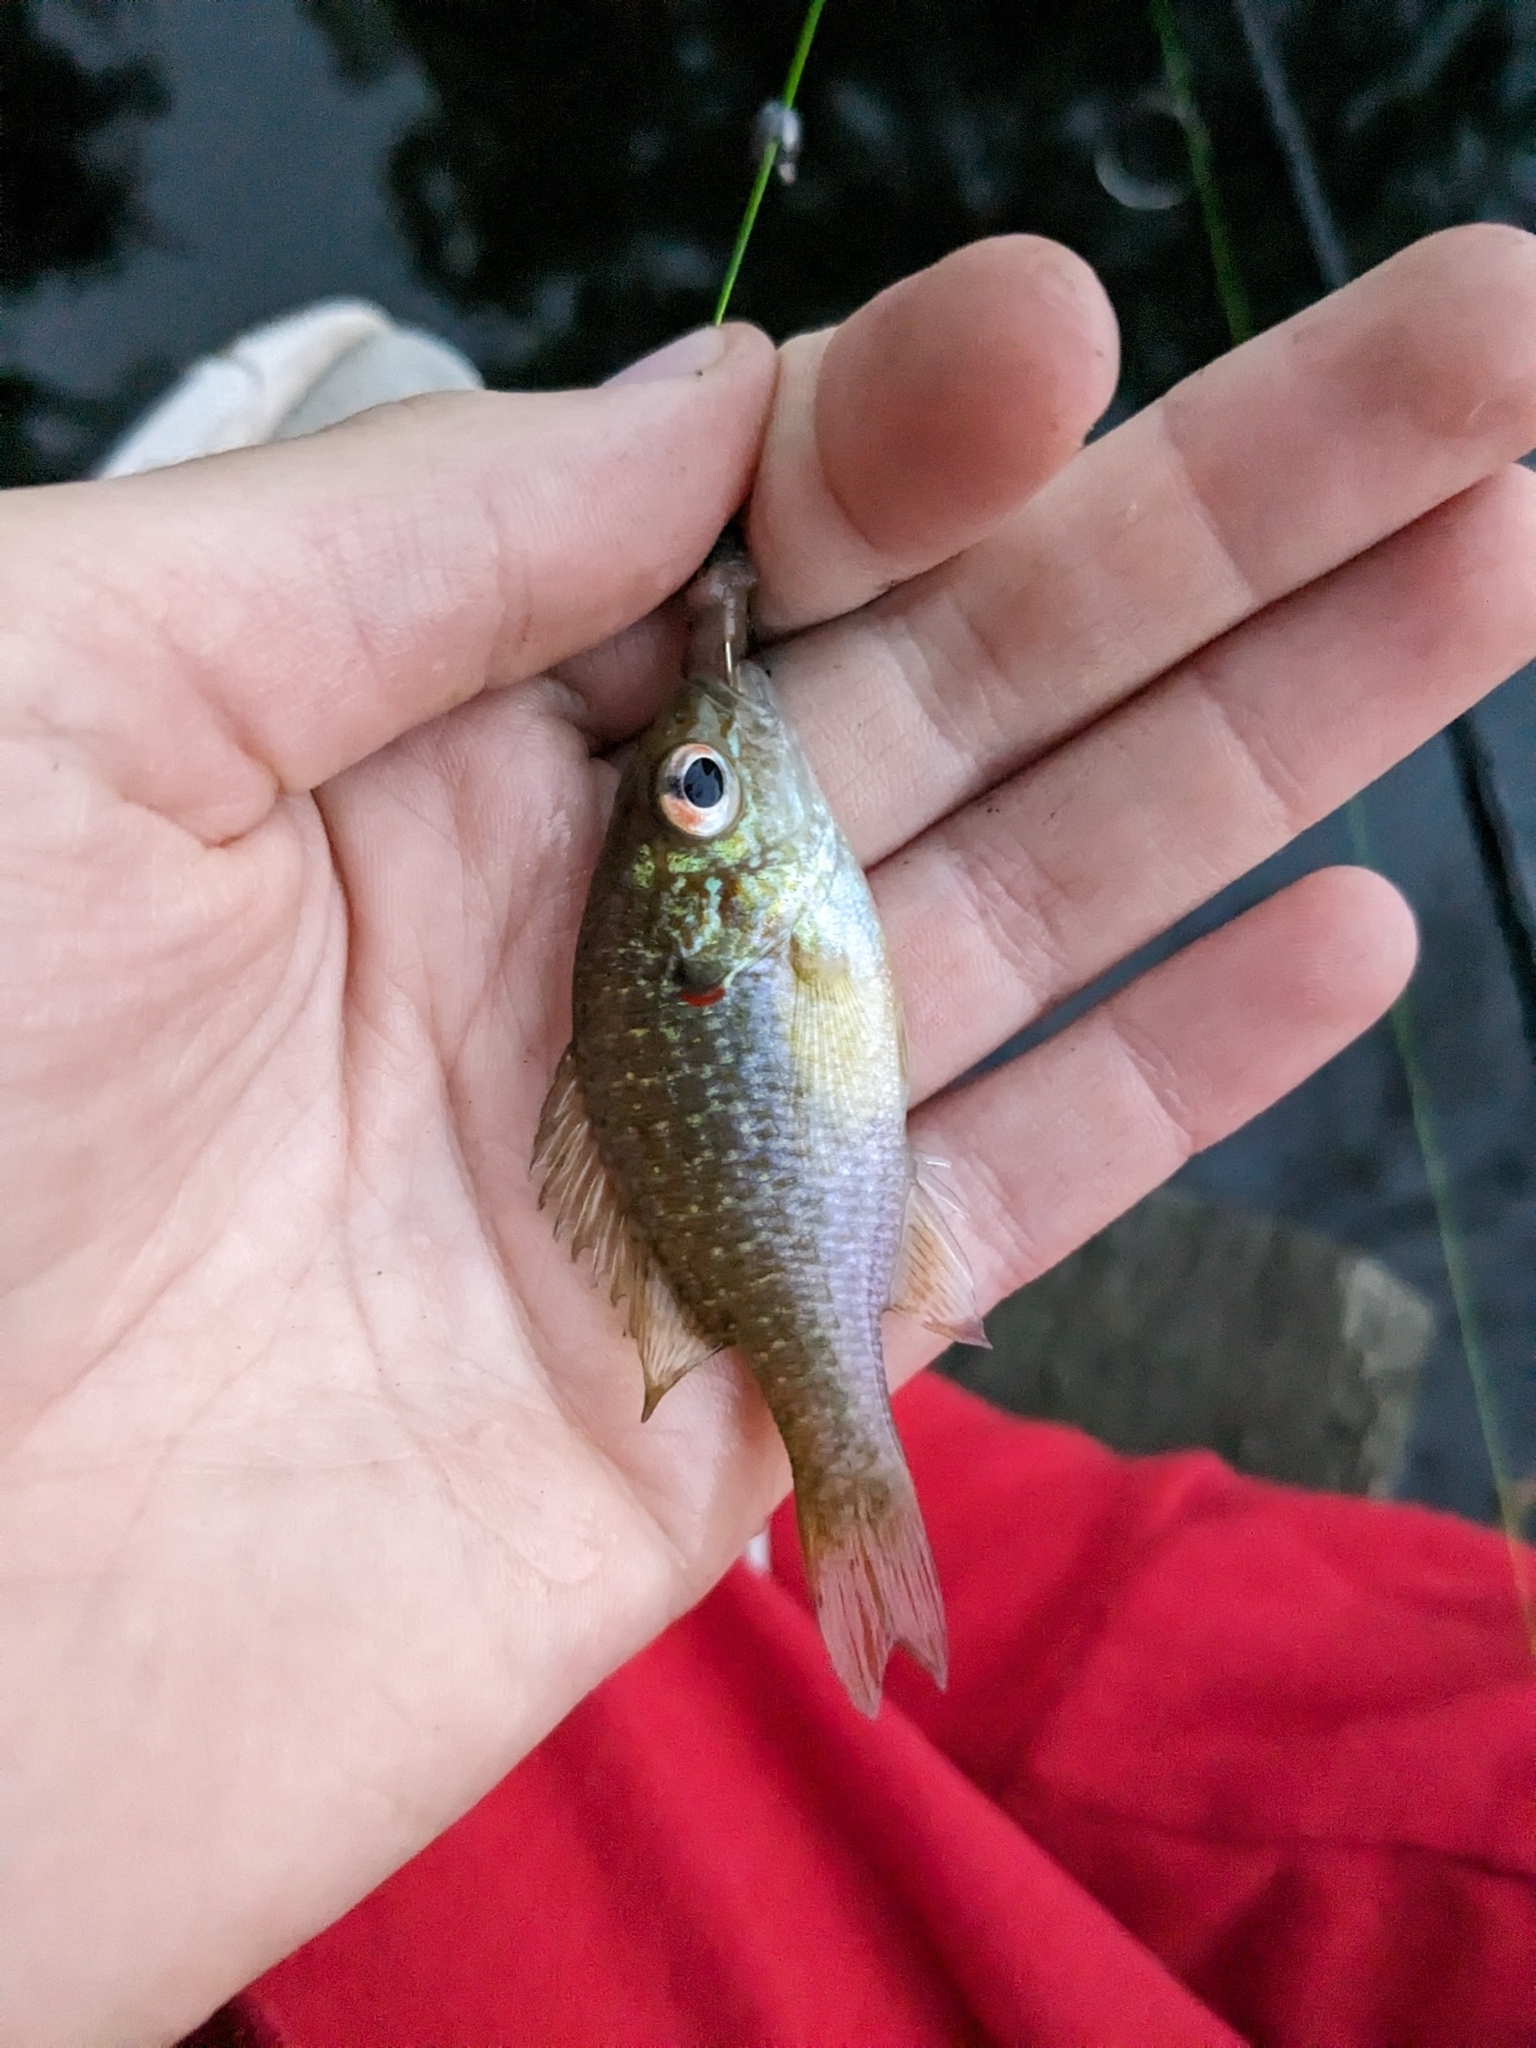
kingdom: Animalia
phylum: Chordata
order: Perciformes
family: Centrarchidae
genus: Lepomis
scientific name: Lepomis peltastes
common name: Northern sunfish
